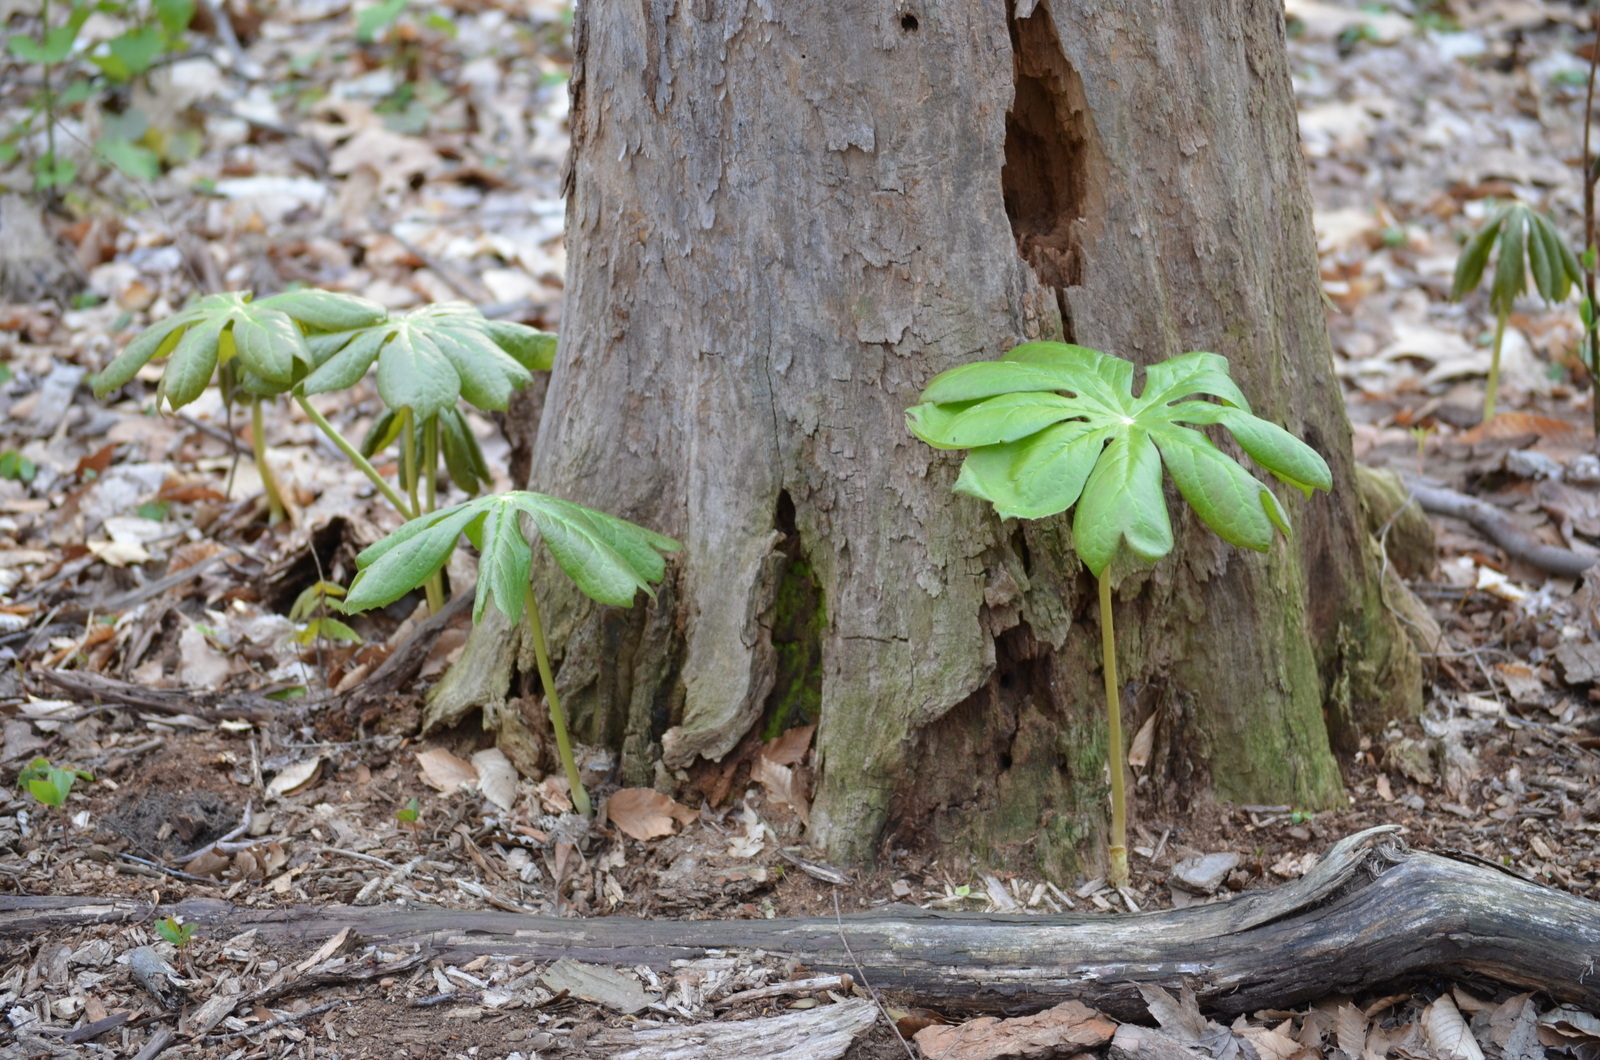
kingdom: Plantae
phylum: Tracheophyta
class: Magnoliopsida
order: Ranunculales
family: Berberidaceae
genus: Podophyllum
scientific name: Podophyllum peltatum
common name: Wild mandrake
